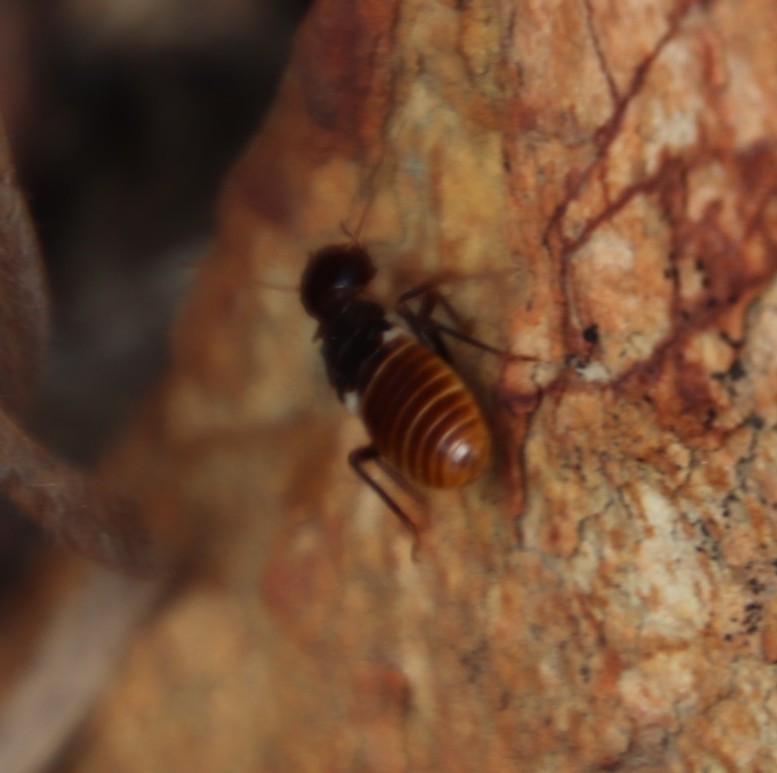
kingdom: Animalia
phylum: Arthropoda
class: Insecta
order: Blattodea
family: Hodotermitidae
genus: Microhodotermes
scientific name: Microhodotermes viator
